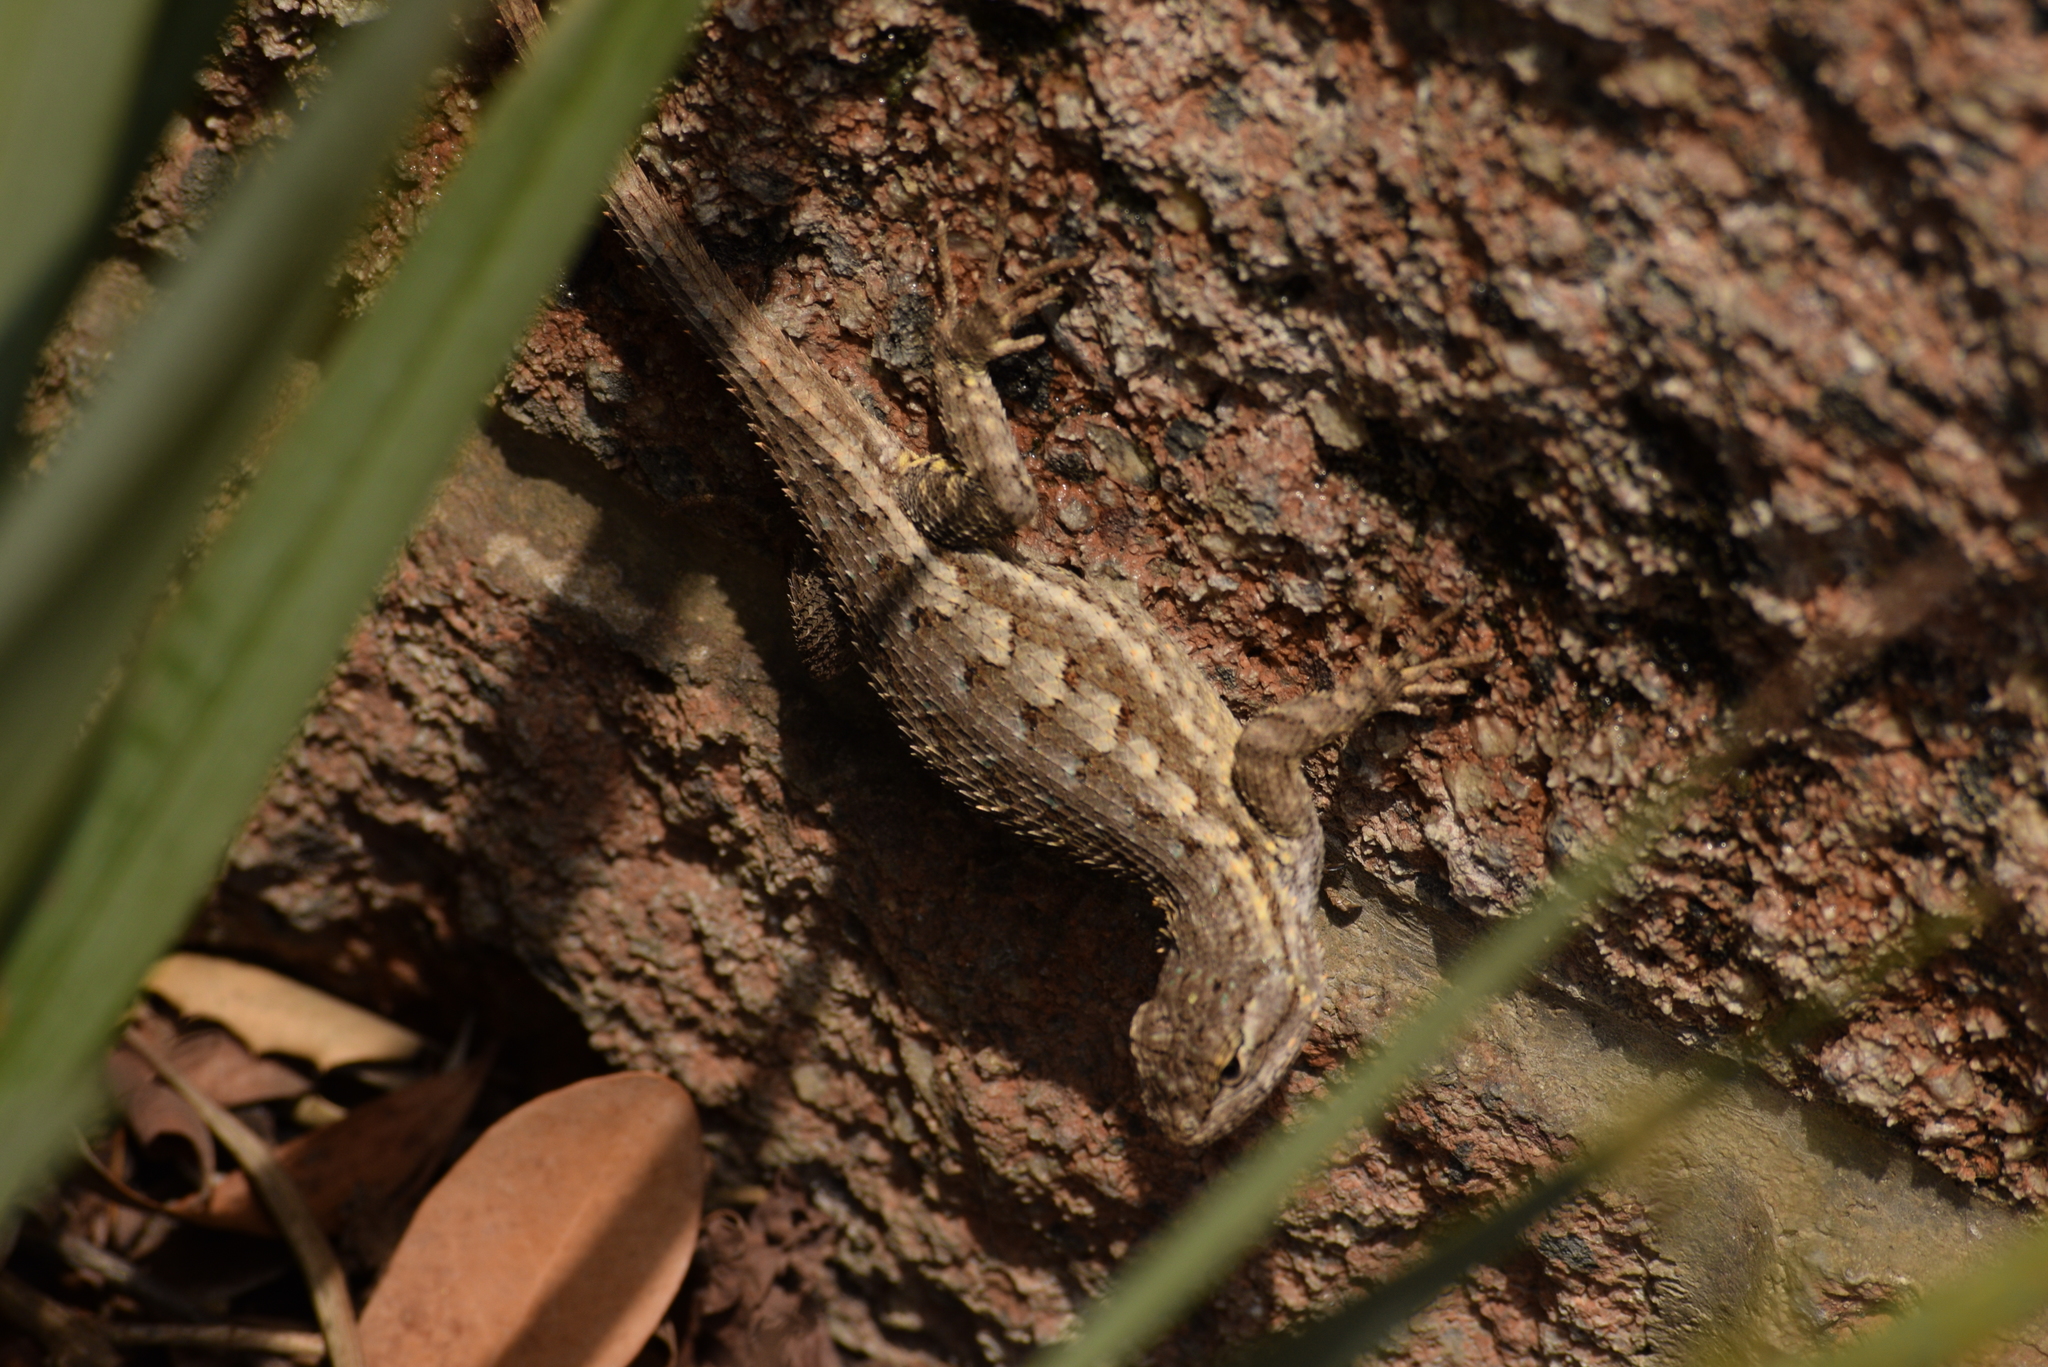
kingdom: Animalia
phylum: Chordata
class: Squamata
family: Phrynosomatidae
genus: Sceloporus
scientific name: Sceloporus occidentalis
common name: Western fence lizard
